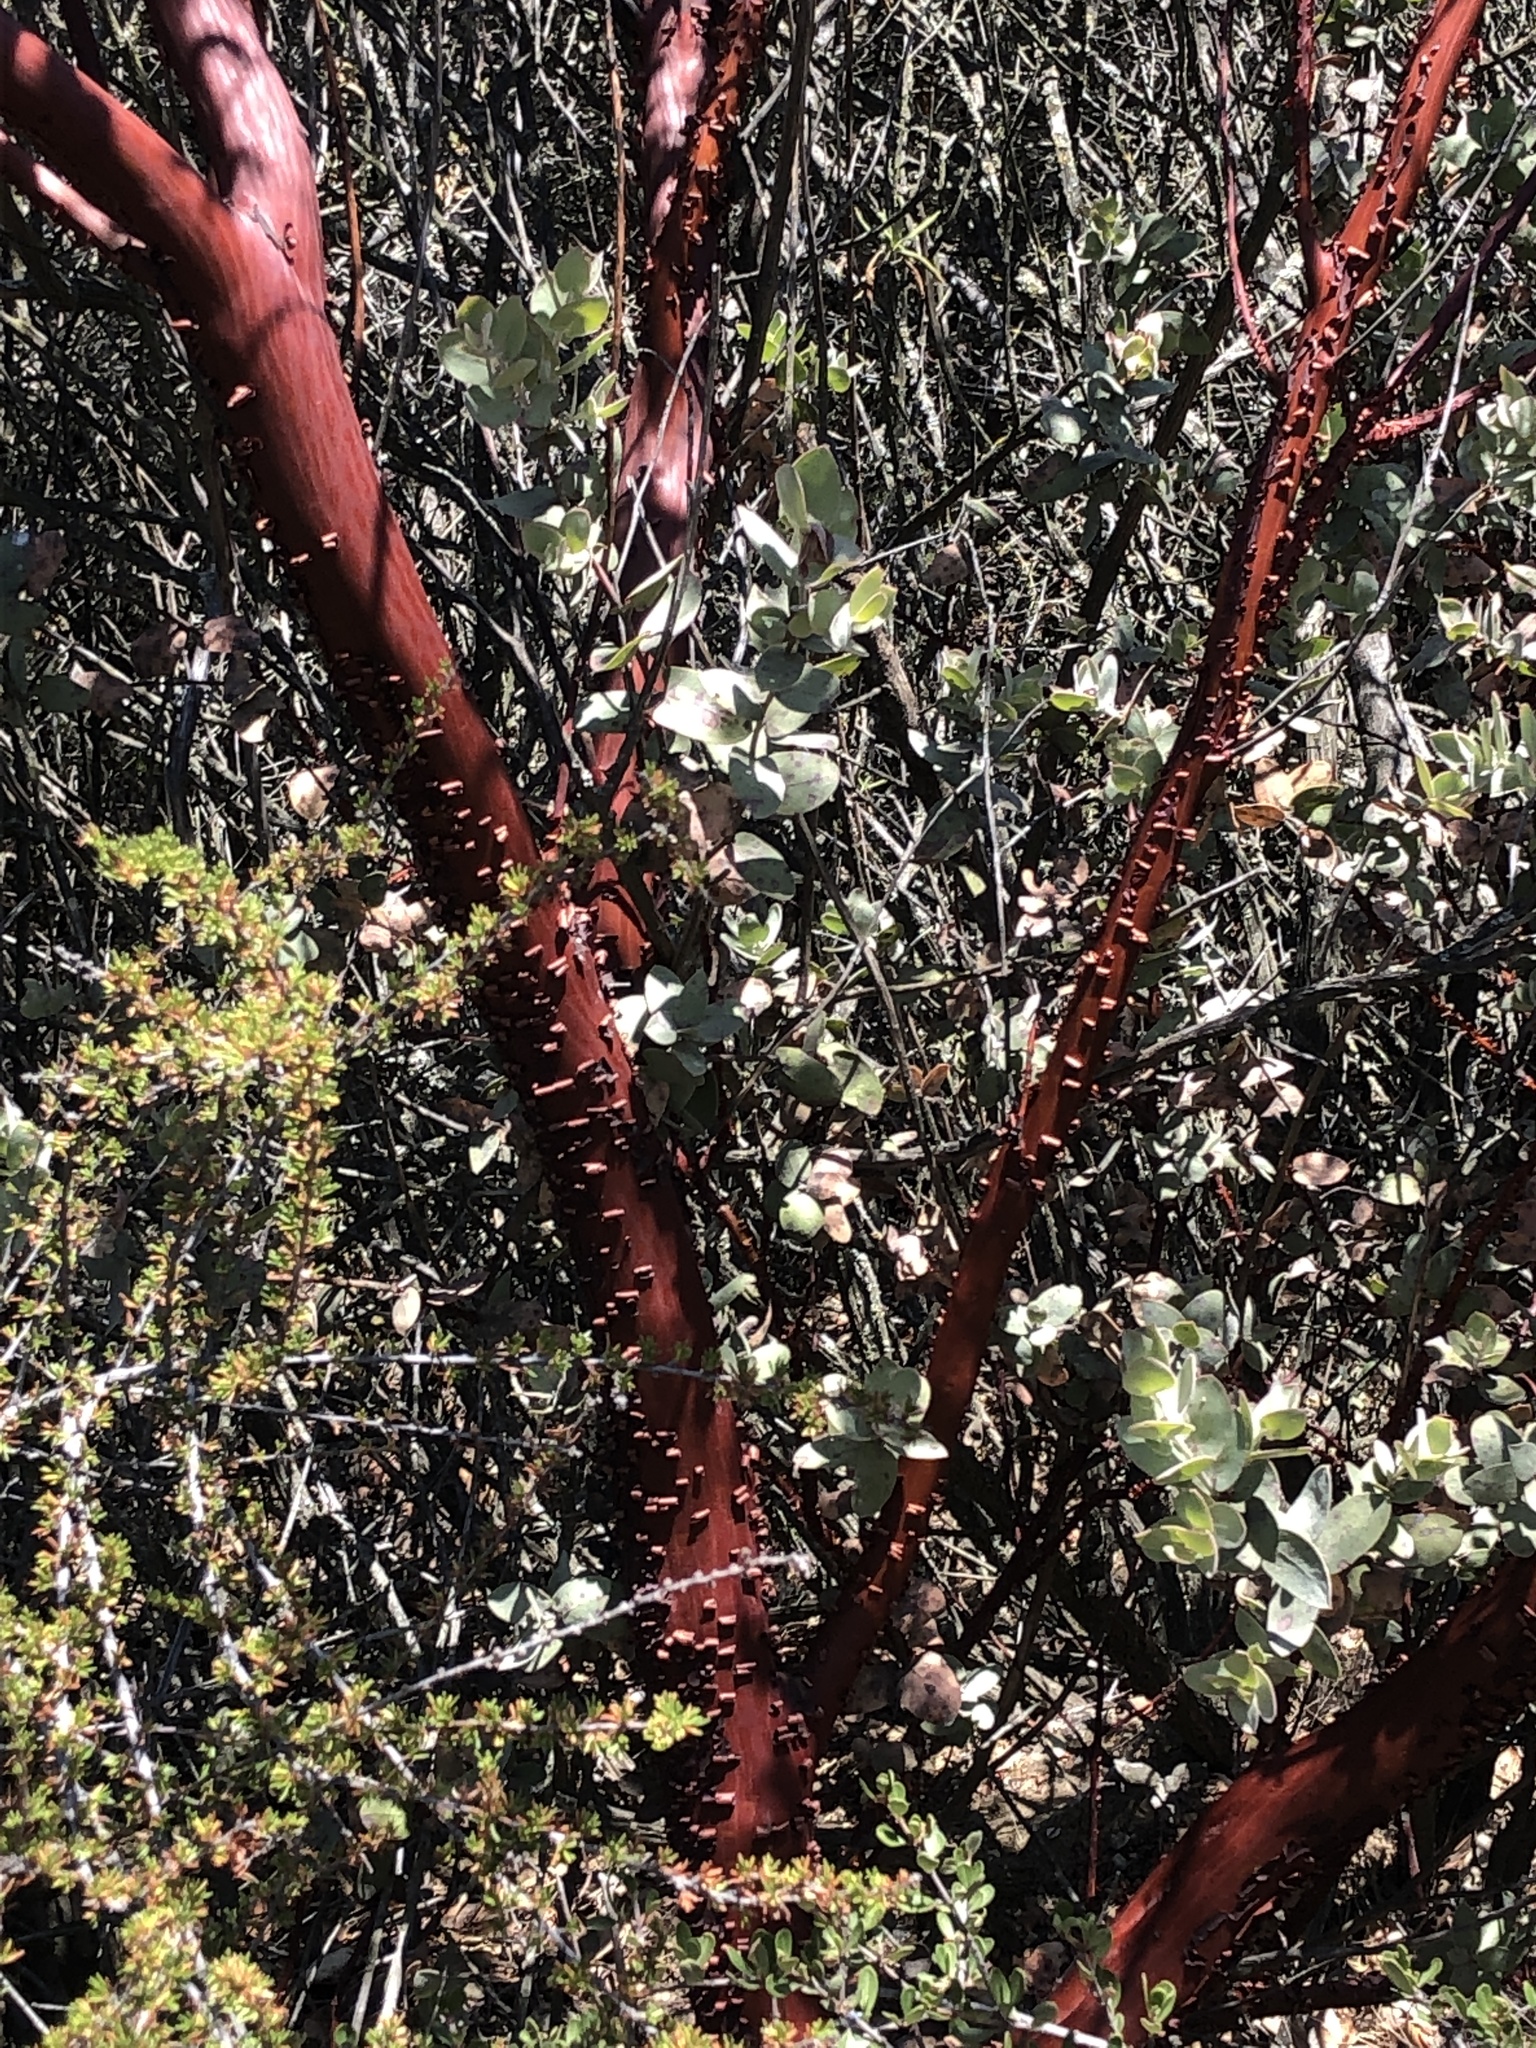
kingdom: Plantae
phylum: Tracheophyta
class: Magnoliopsida
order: Ericales
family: Ericaceae
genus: Arctostaphylos
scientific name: Arctostaphylos obispoensis
